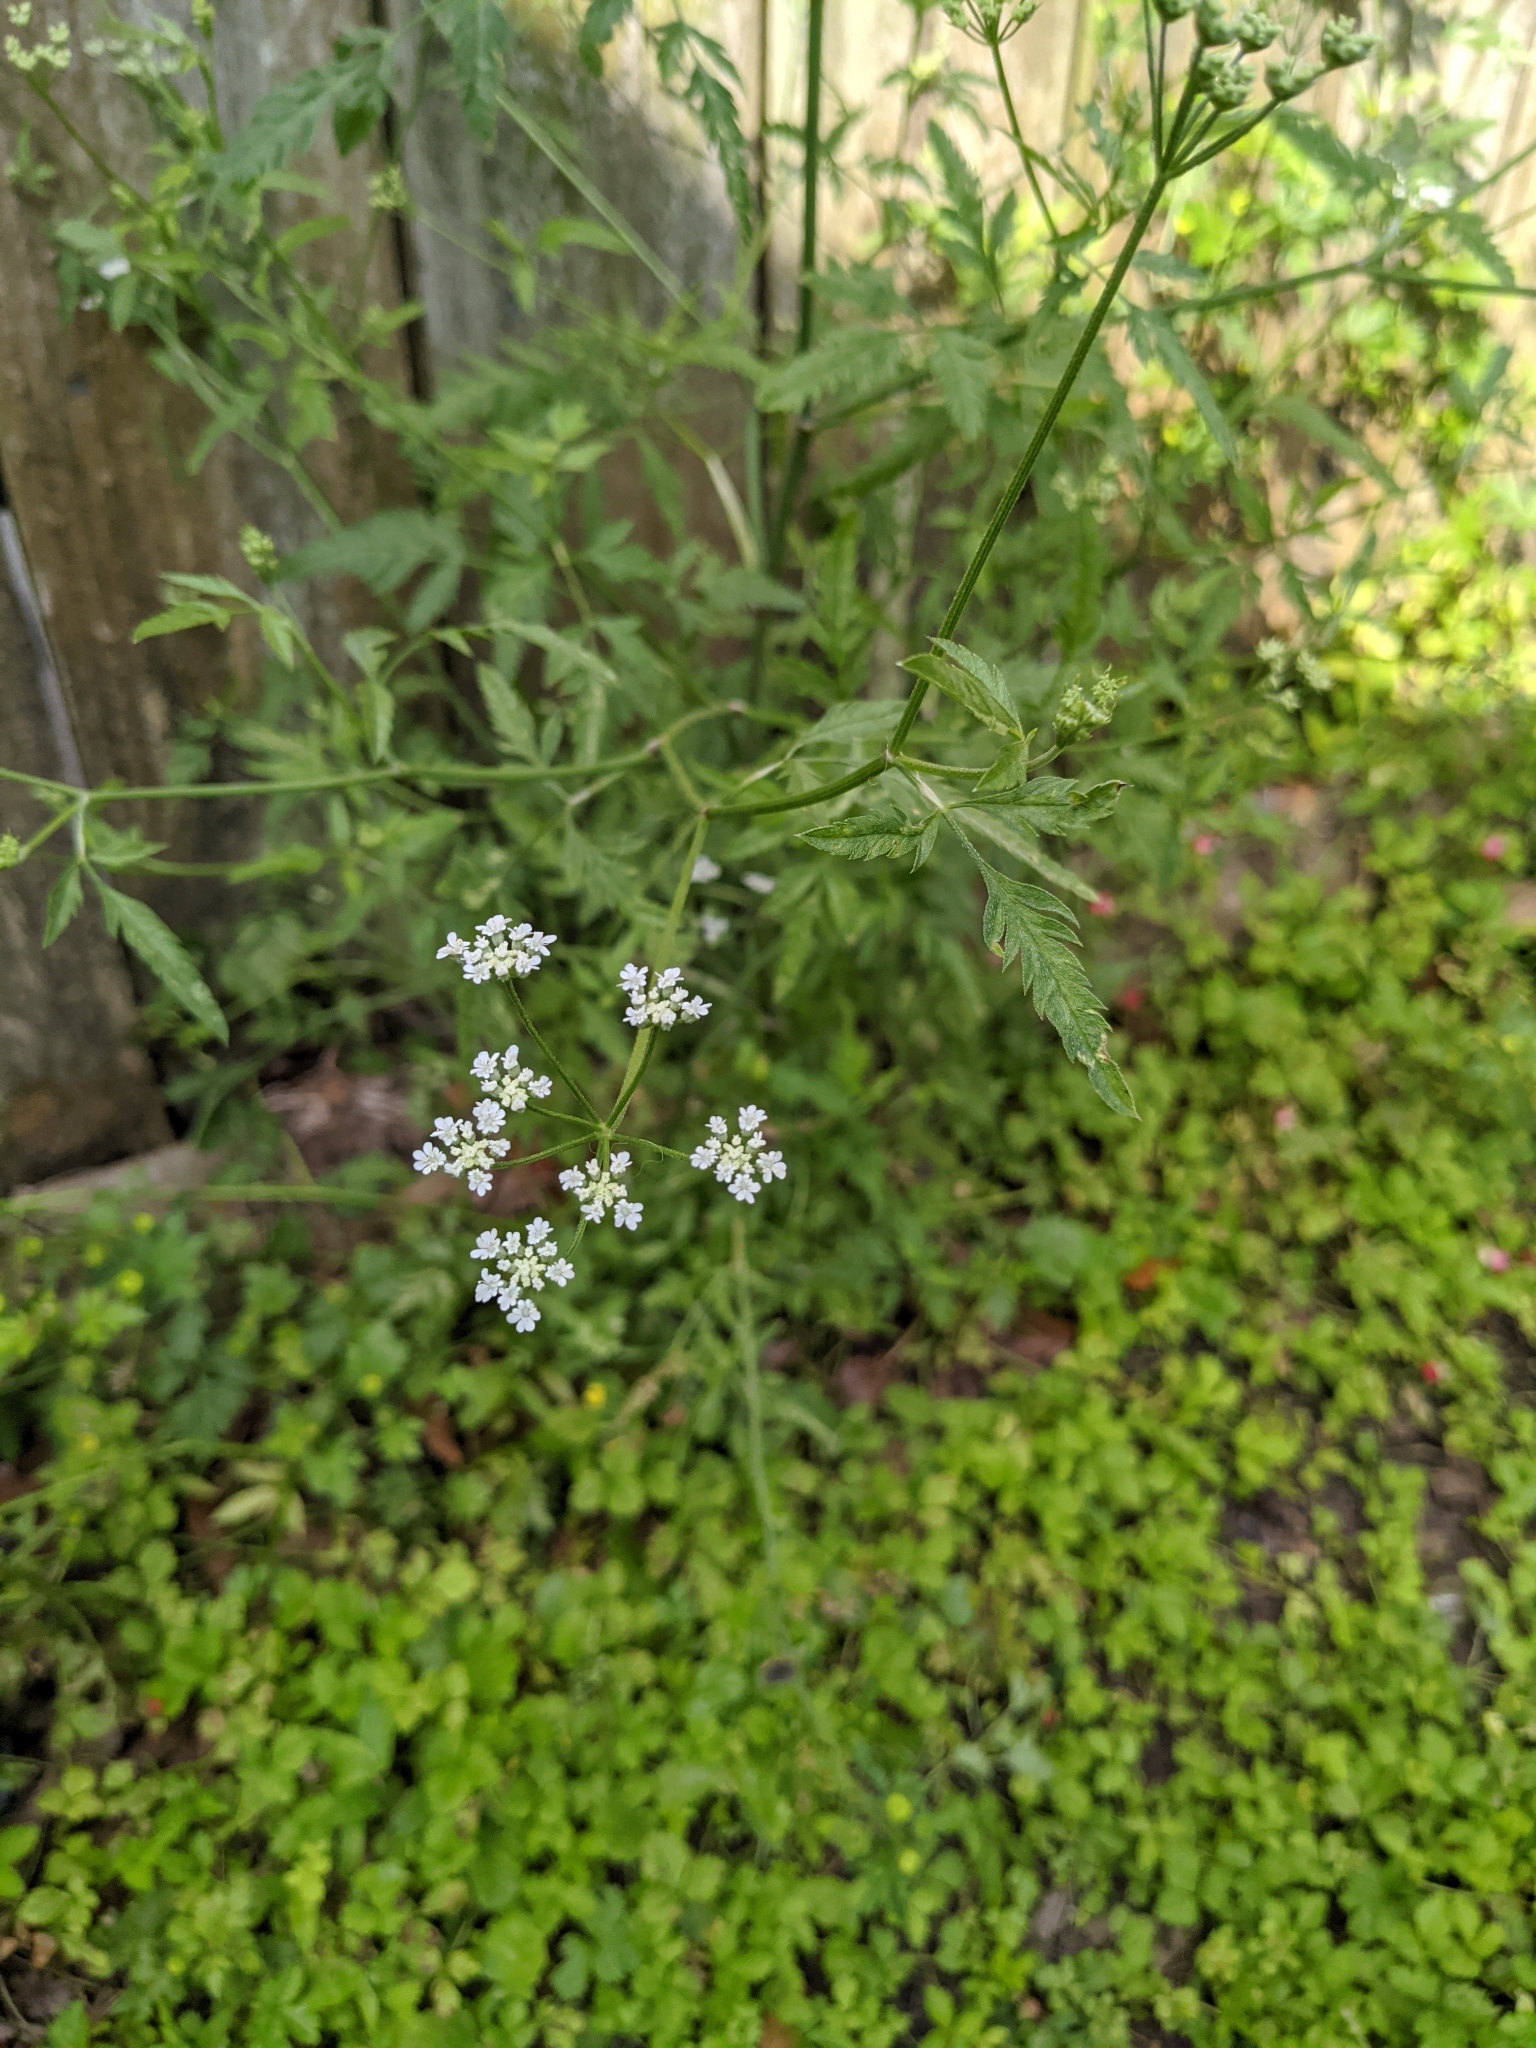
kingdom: Plantae
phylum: Tracheophyta
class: Magnoliopsida
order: Apiales
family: Apiaceae
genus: Torilis
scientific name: Torilis arvensis
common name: Spreading hedge-parsley
